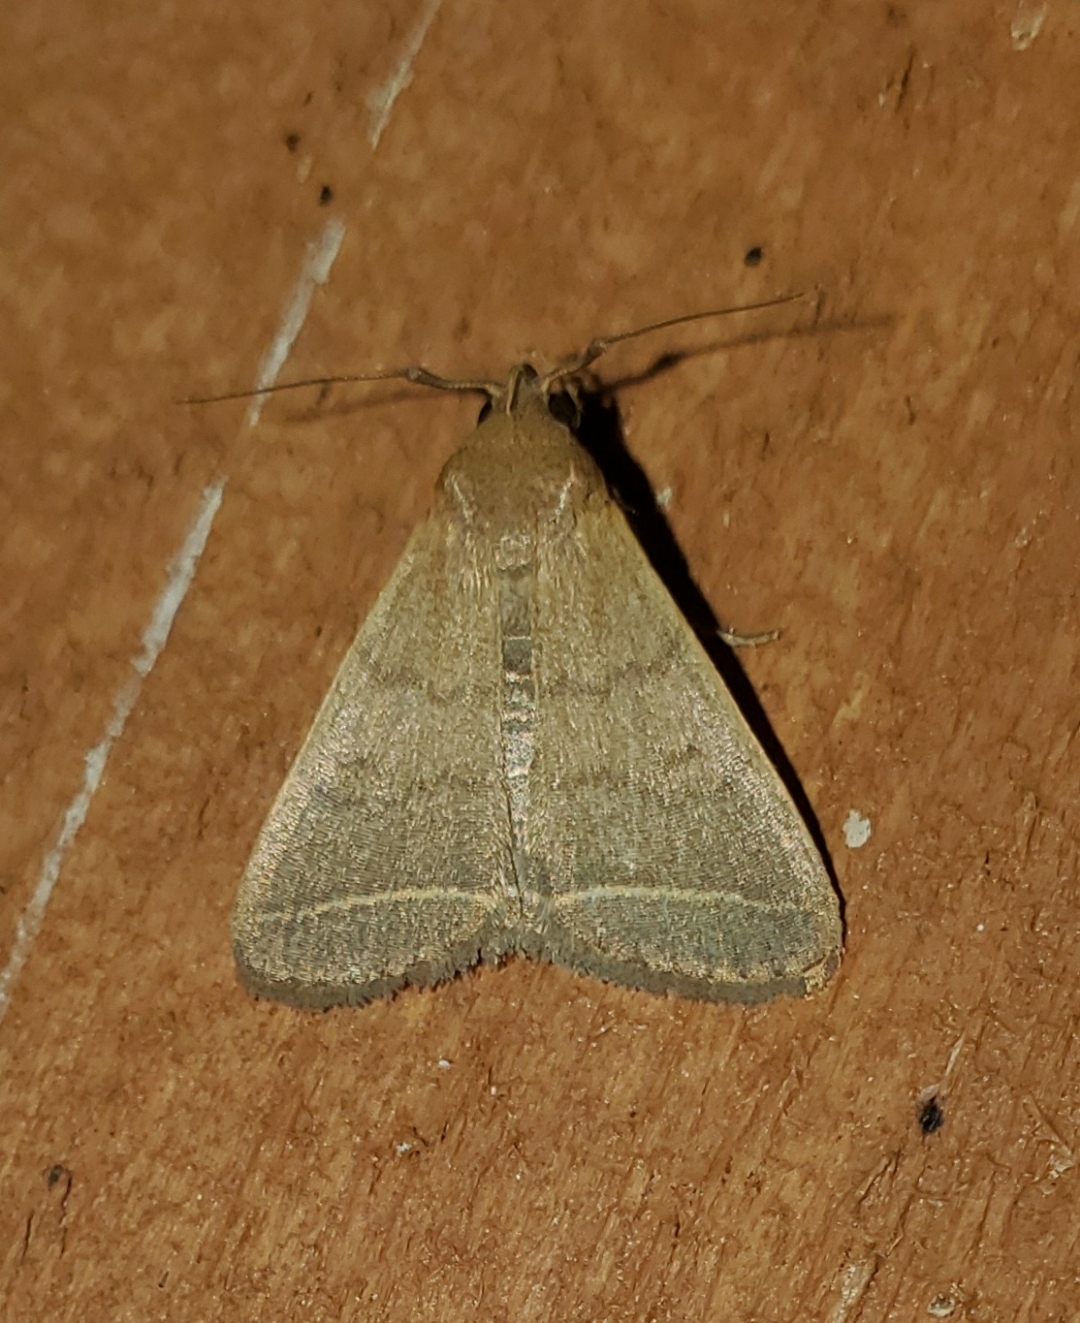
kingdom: Animalia
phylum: Arthropoda
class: Insecta
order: Lepidoptera
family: Erebidae
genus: Simplicia
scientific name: Simplicia cornicalis
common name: Tiki hut litter moth
